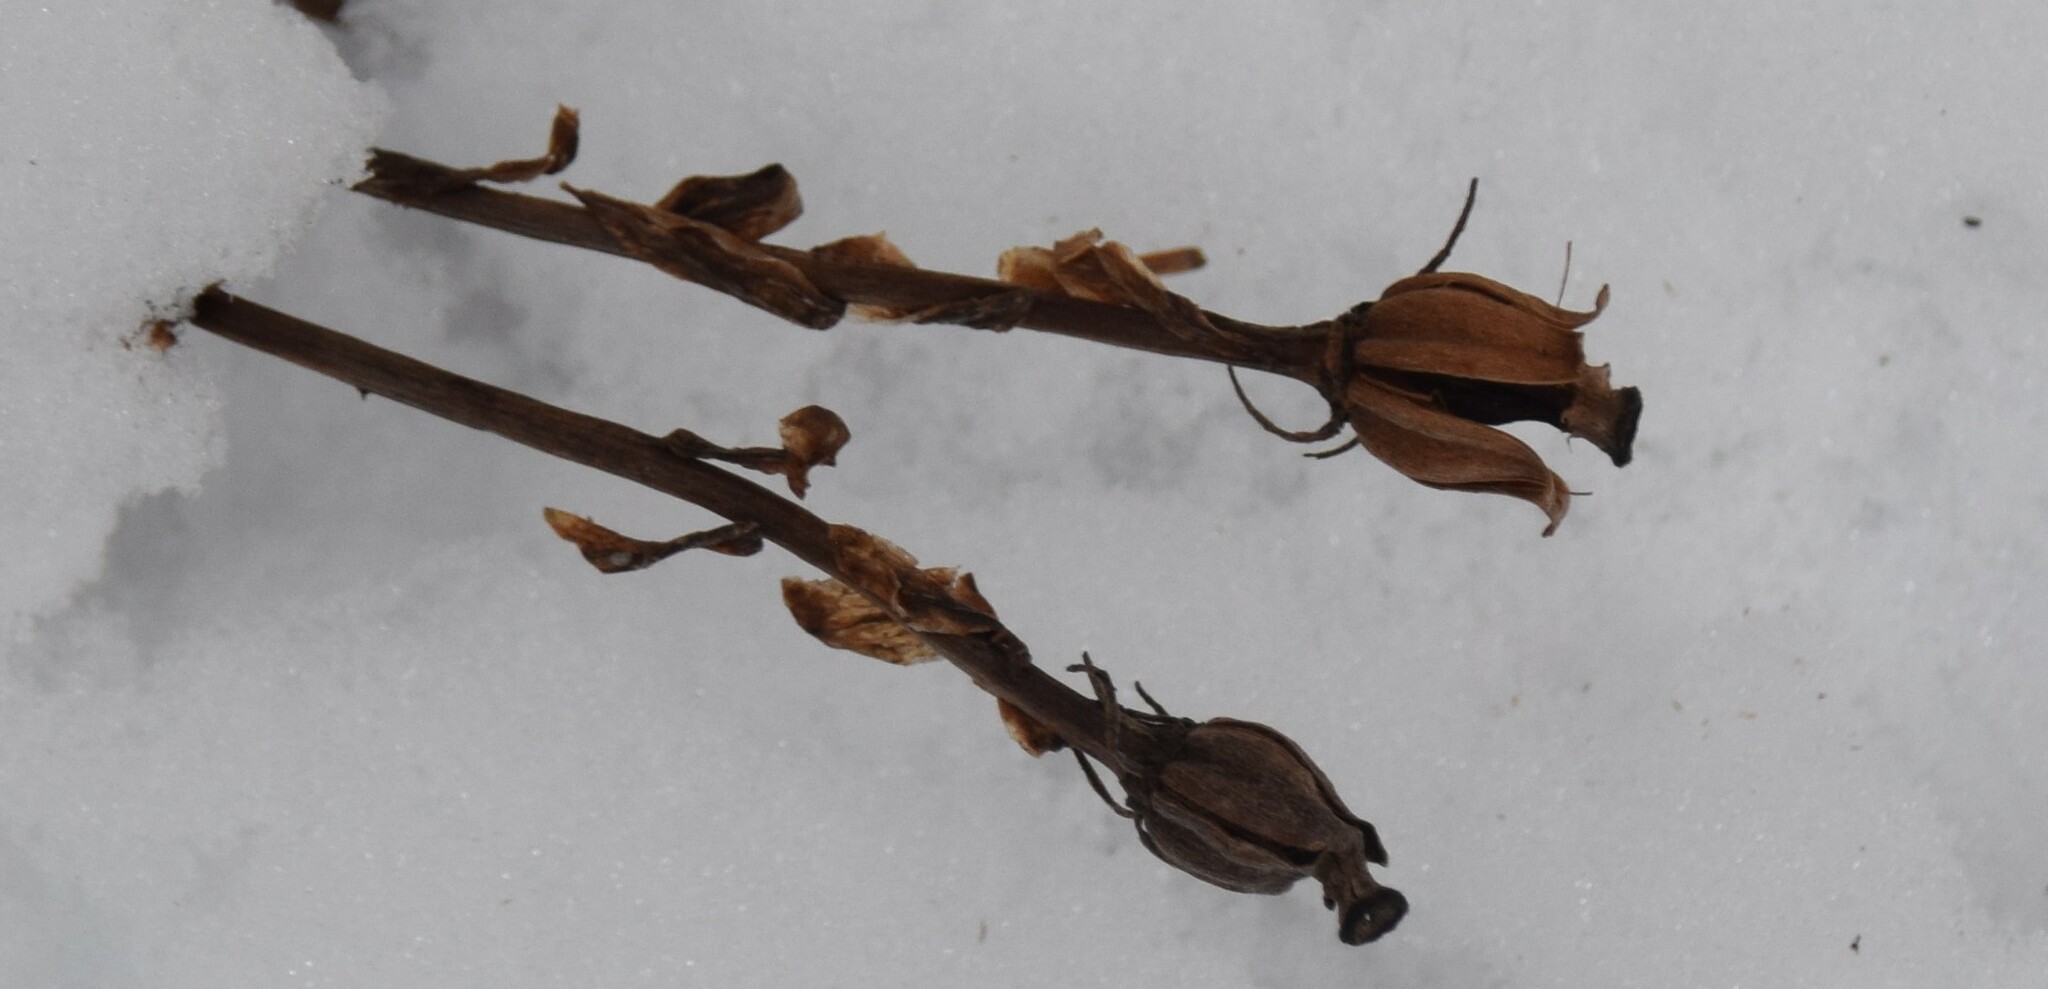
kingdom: Plantae
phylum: Tracheophyta
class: Magnoliopsida
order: Ericales
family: Ericaceae
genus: Monotropa
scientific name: Monotropa uniflora
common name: Convulsion root
